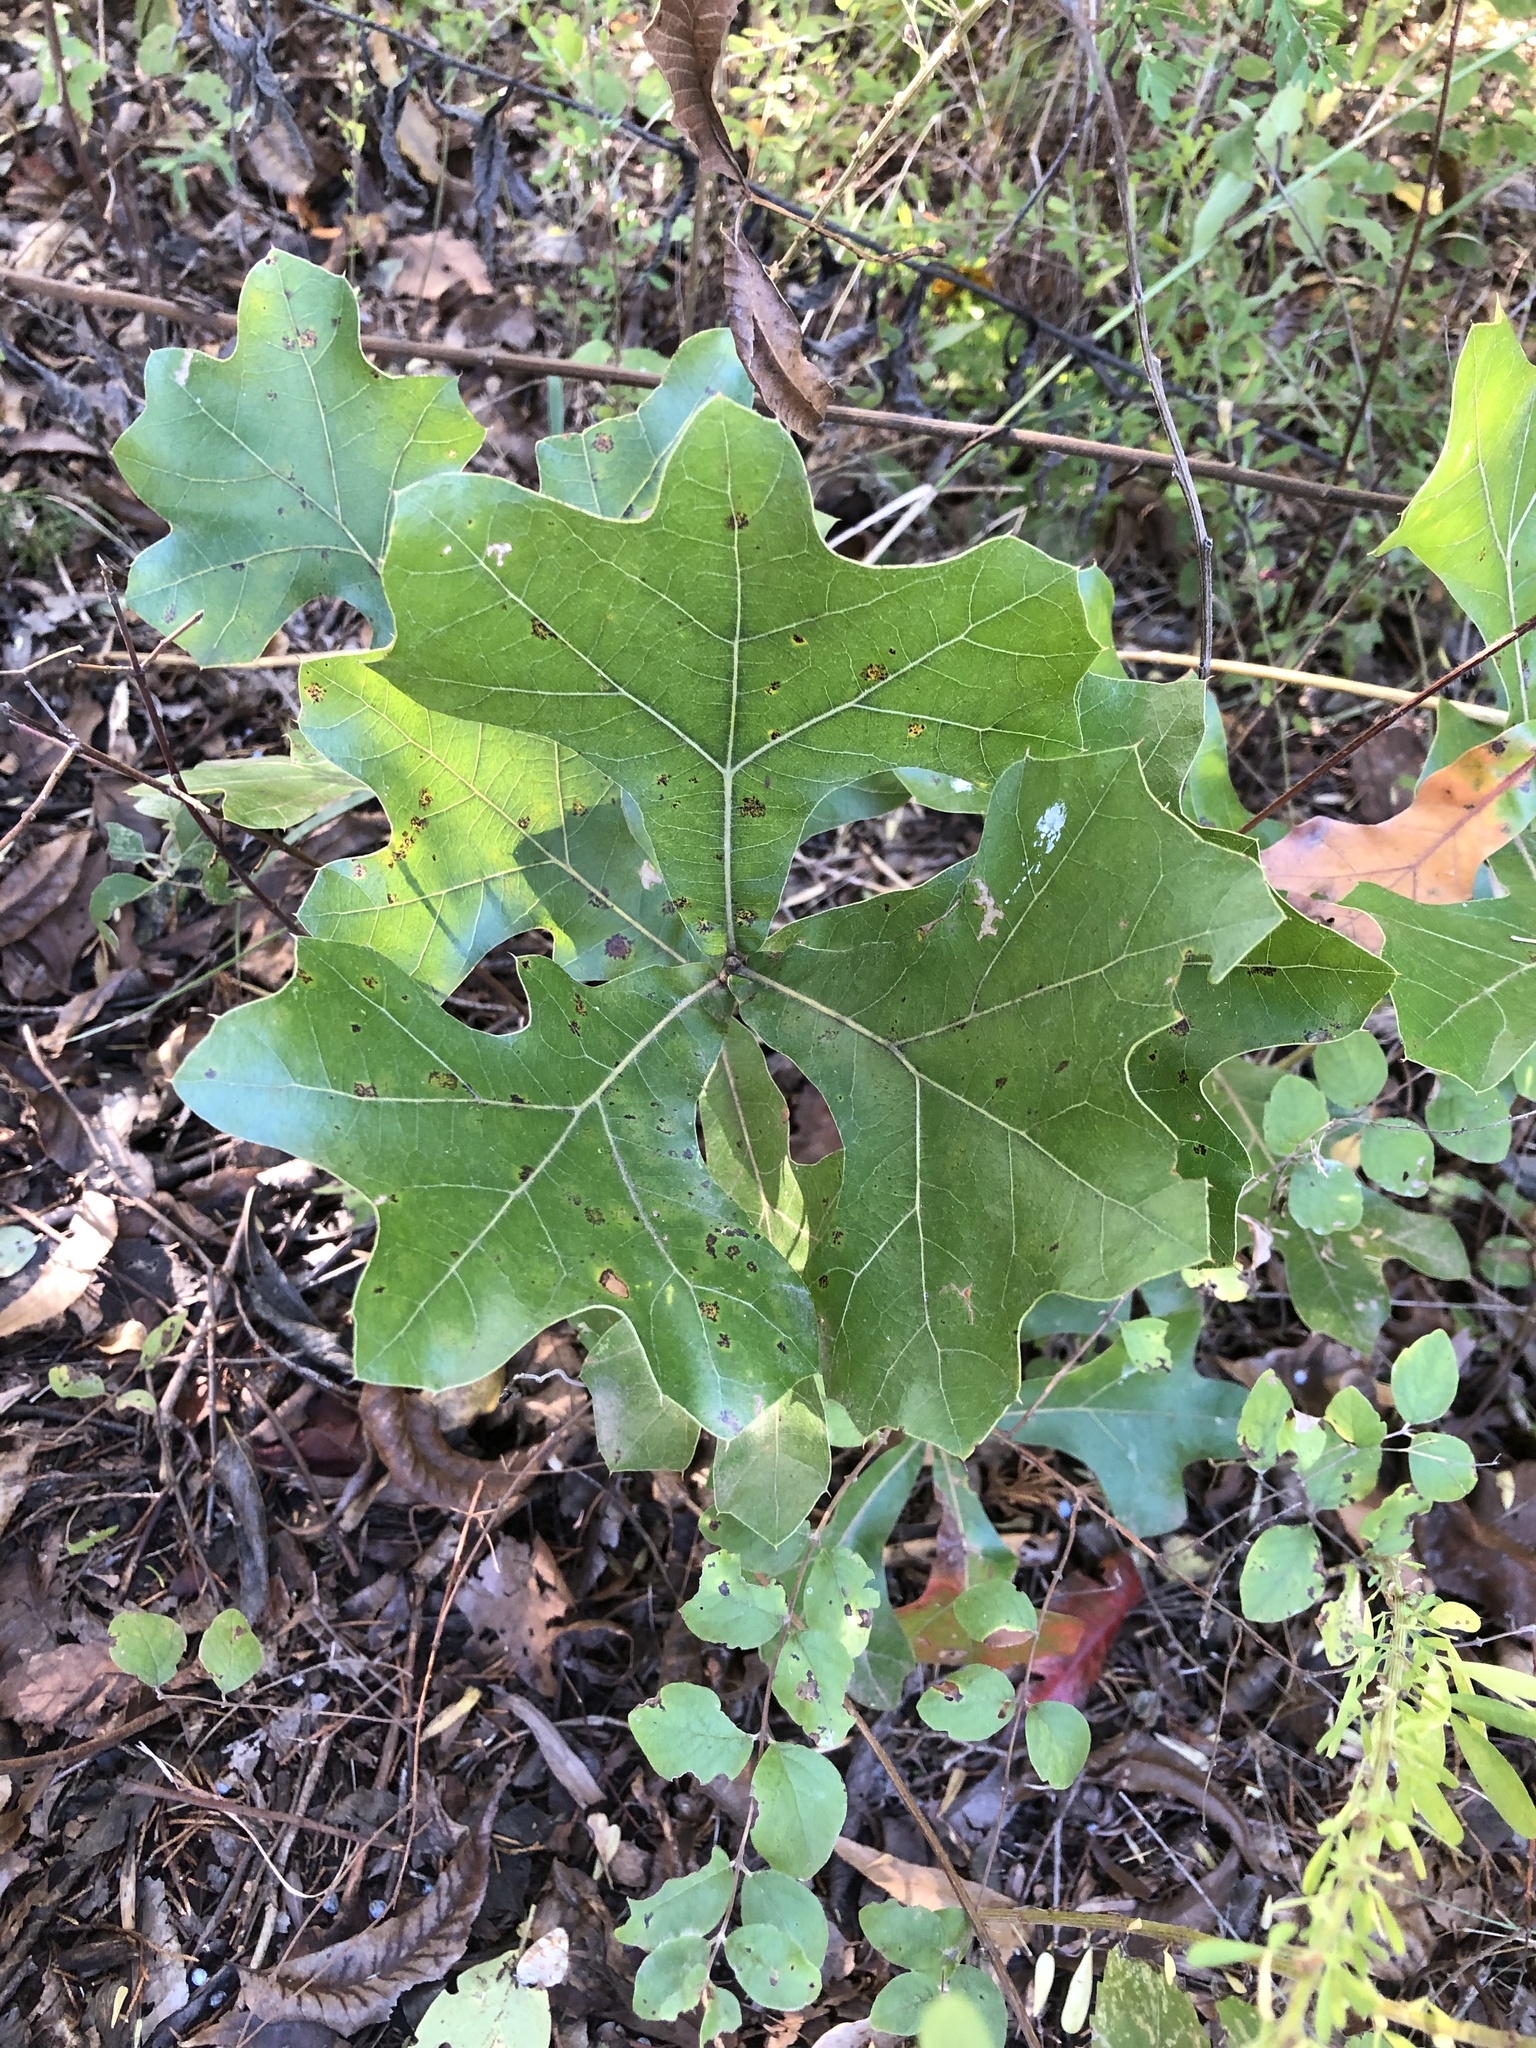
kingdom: Plantae
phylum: Tracheophyta
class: Magnoliopsida
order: Fagales
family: Fagaceae
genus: Quercus
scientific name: Quercus marilandica
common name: Blackjack oak
